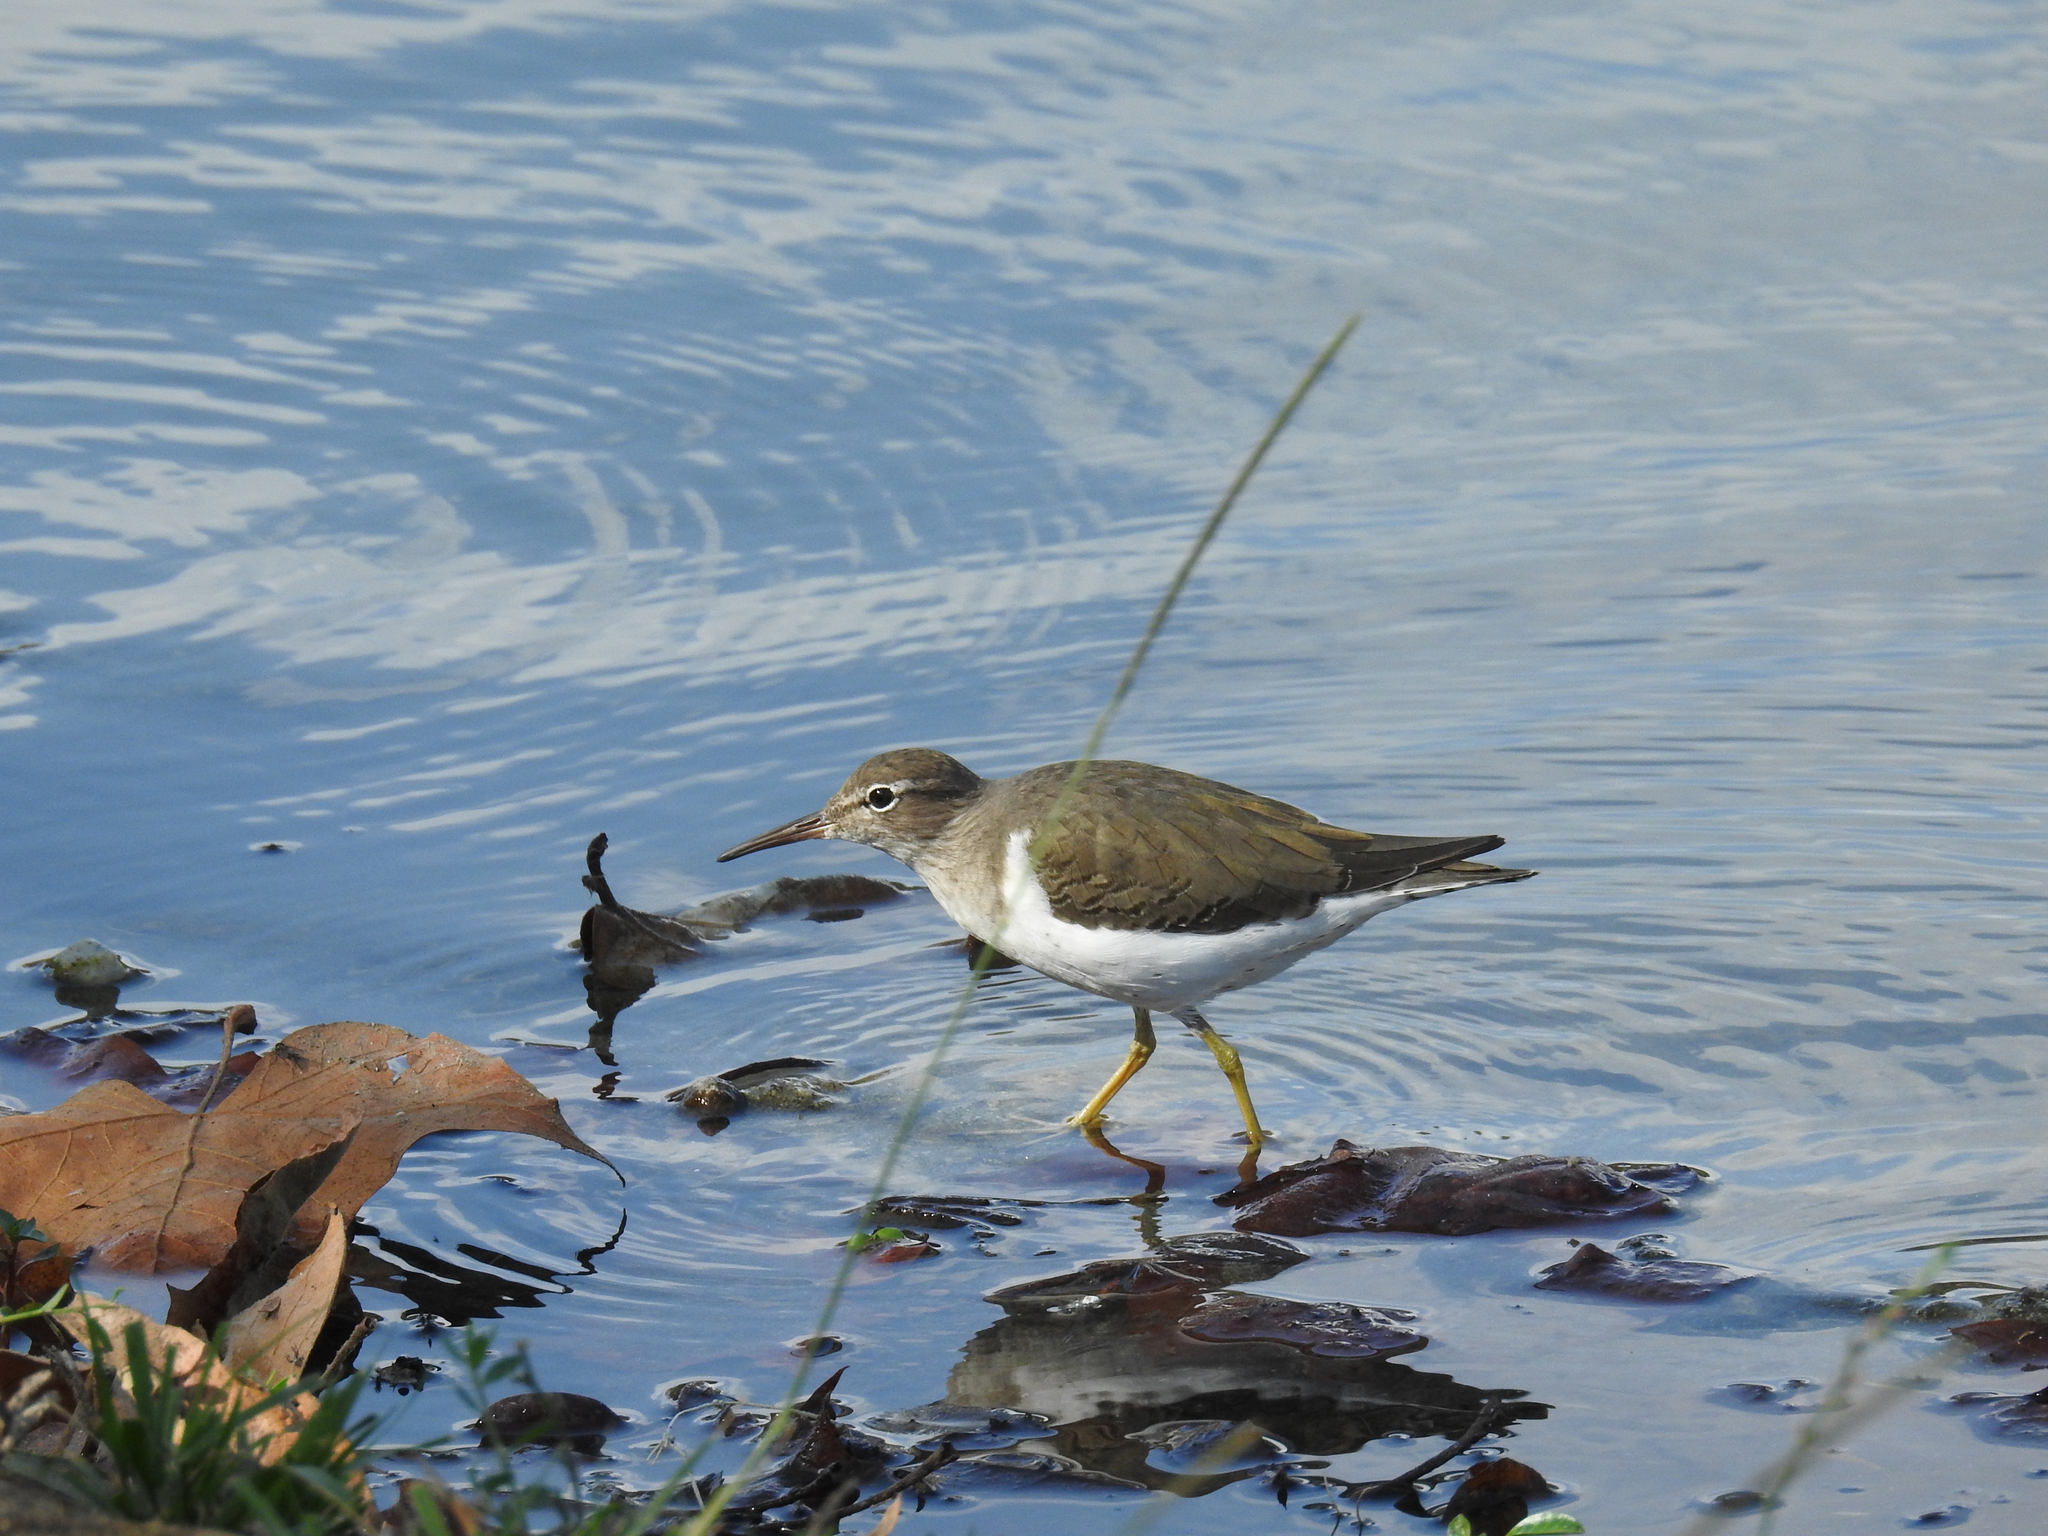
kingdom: Animalia
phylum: Chordata
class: Aves
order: Charadriiformes
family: Scolopacidae
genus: Actitis
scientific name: Actitis macularius
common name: Spotted sandpiper
